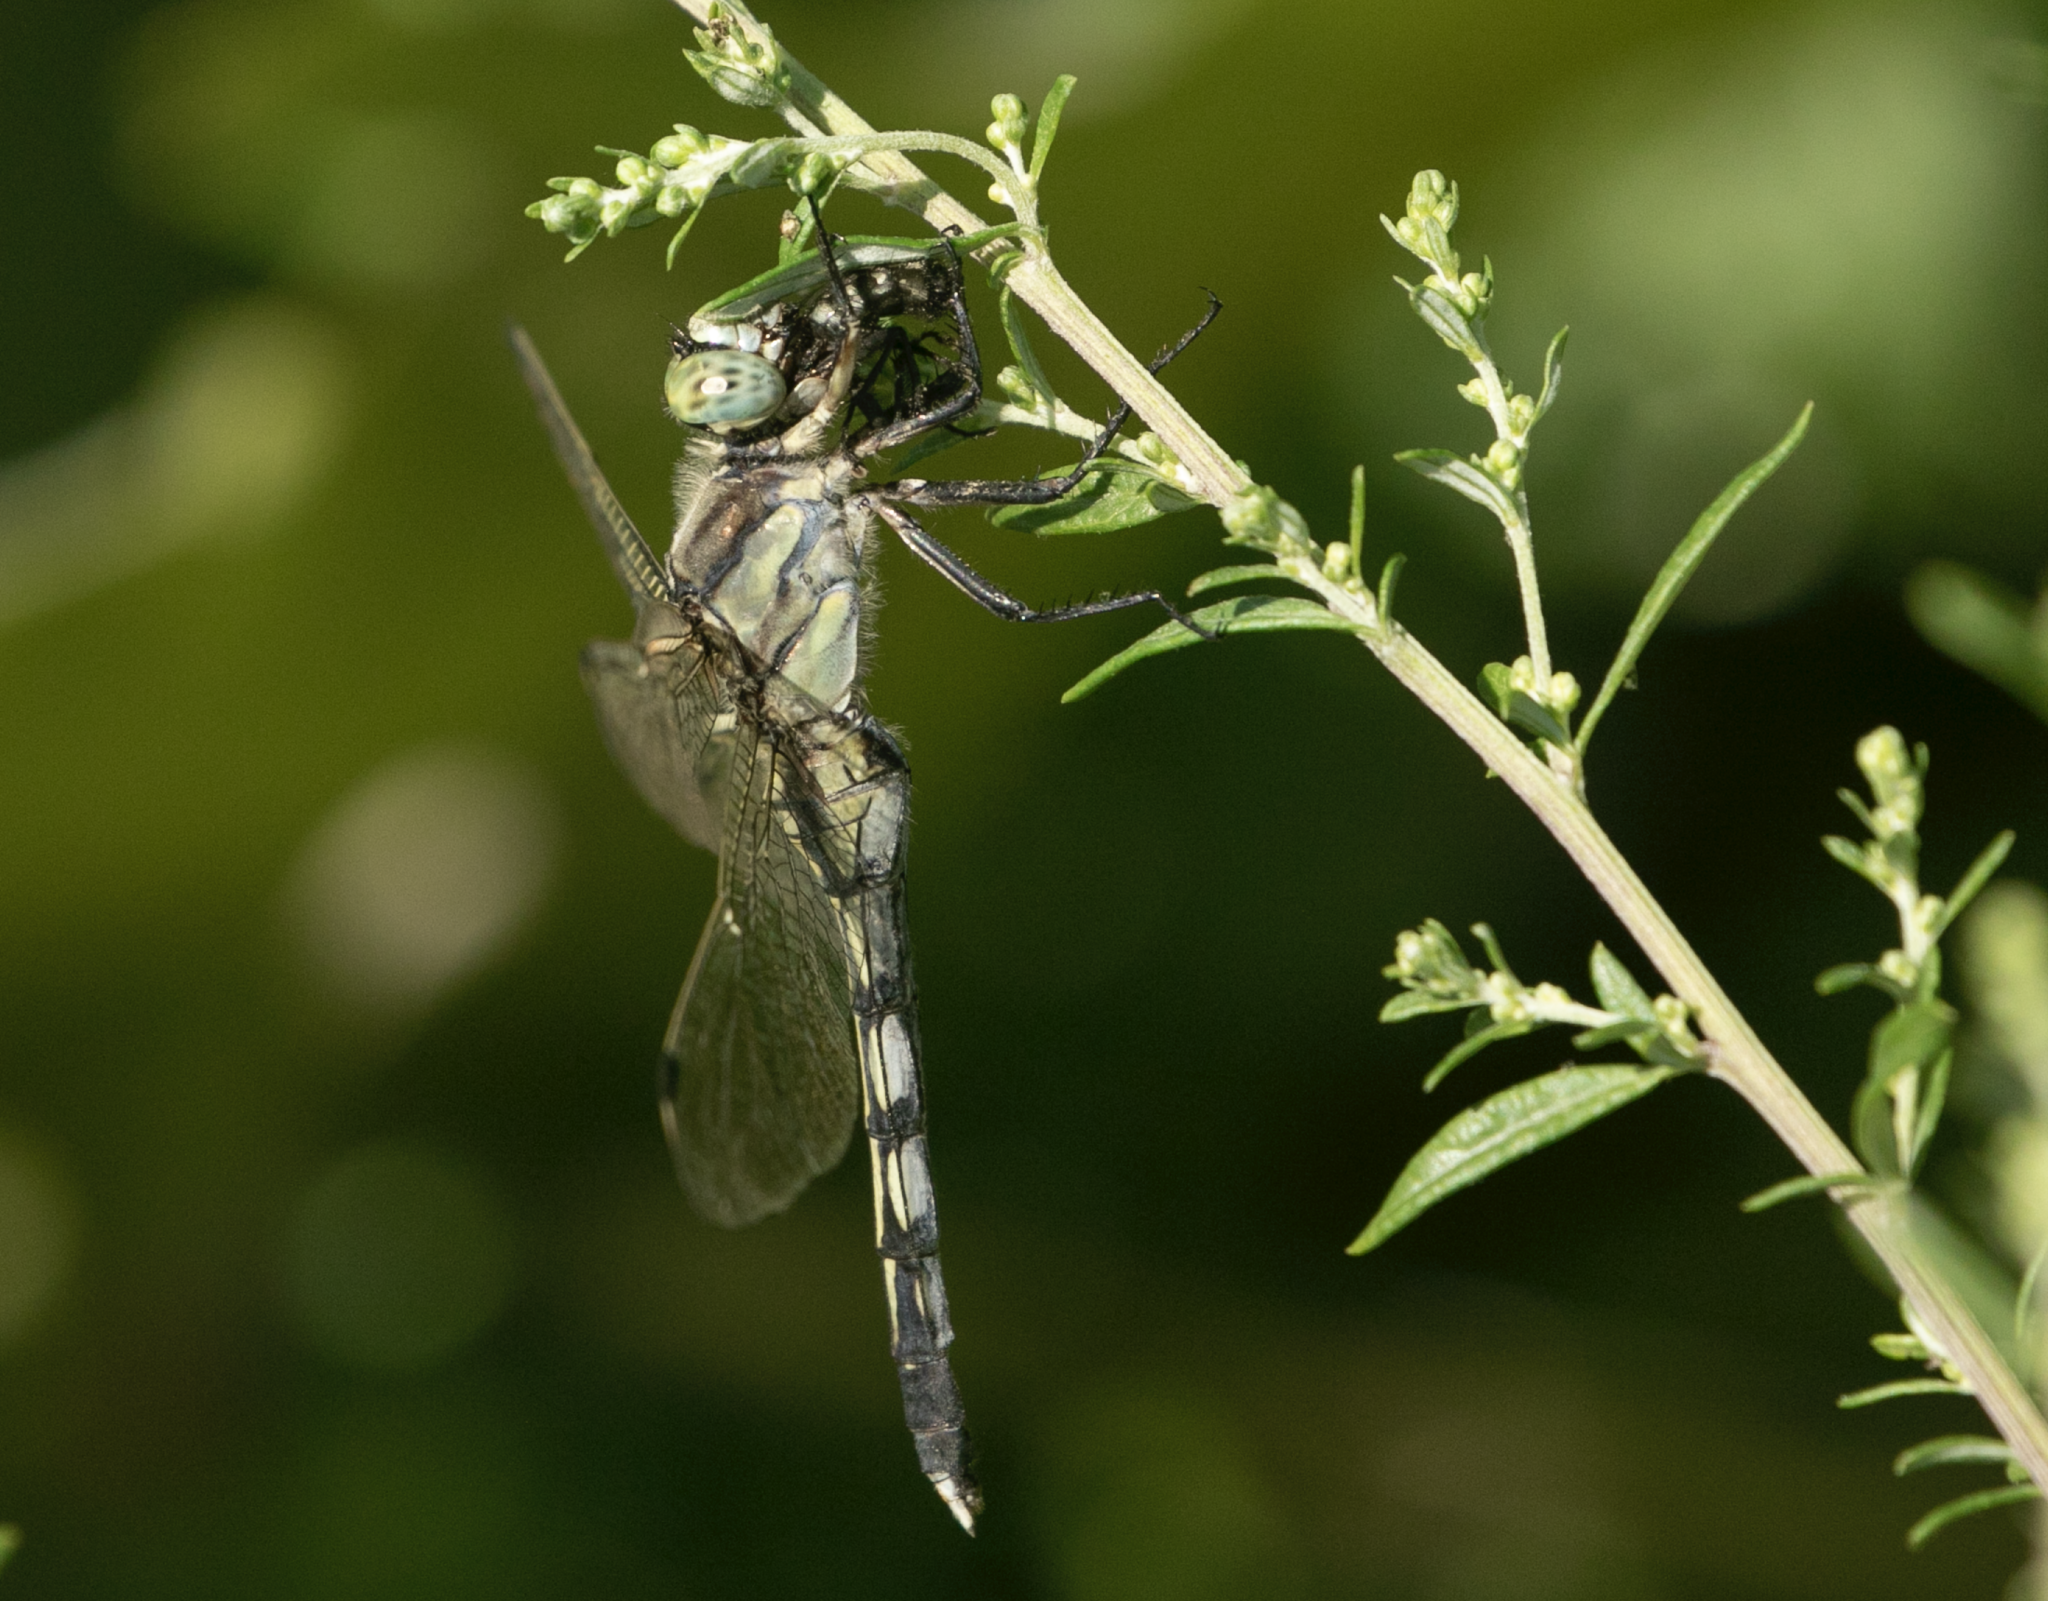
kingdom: Animalia
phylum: Arthropoda
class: Insecta
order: Odonata
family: Libellulidae
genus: Orthetrum
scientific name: Orthetrum albistylum
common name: White-tailed skimmer
